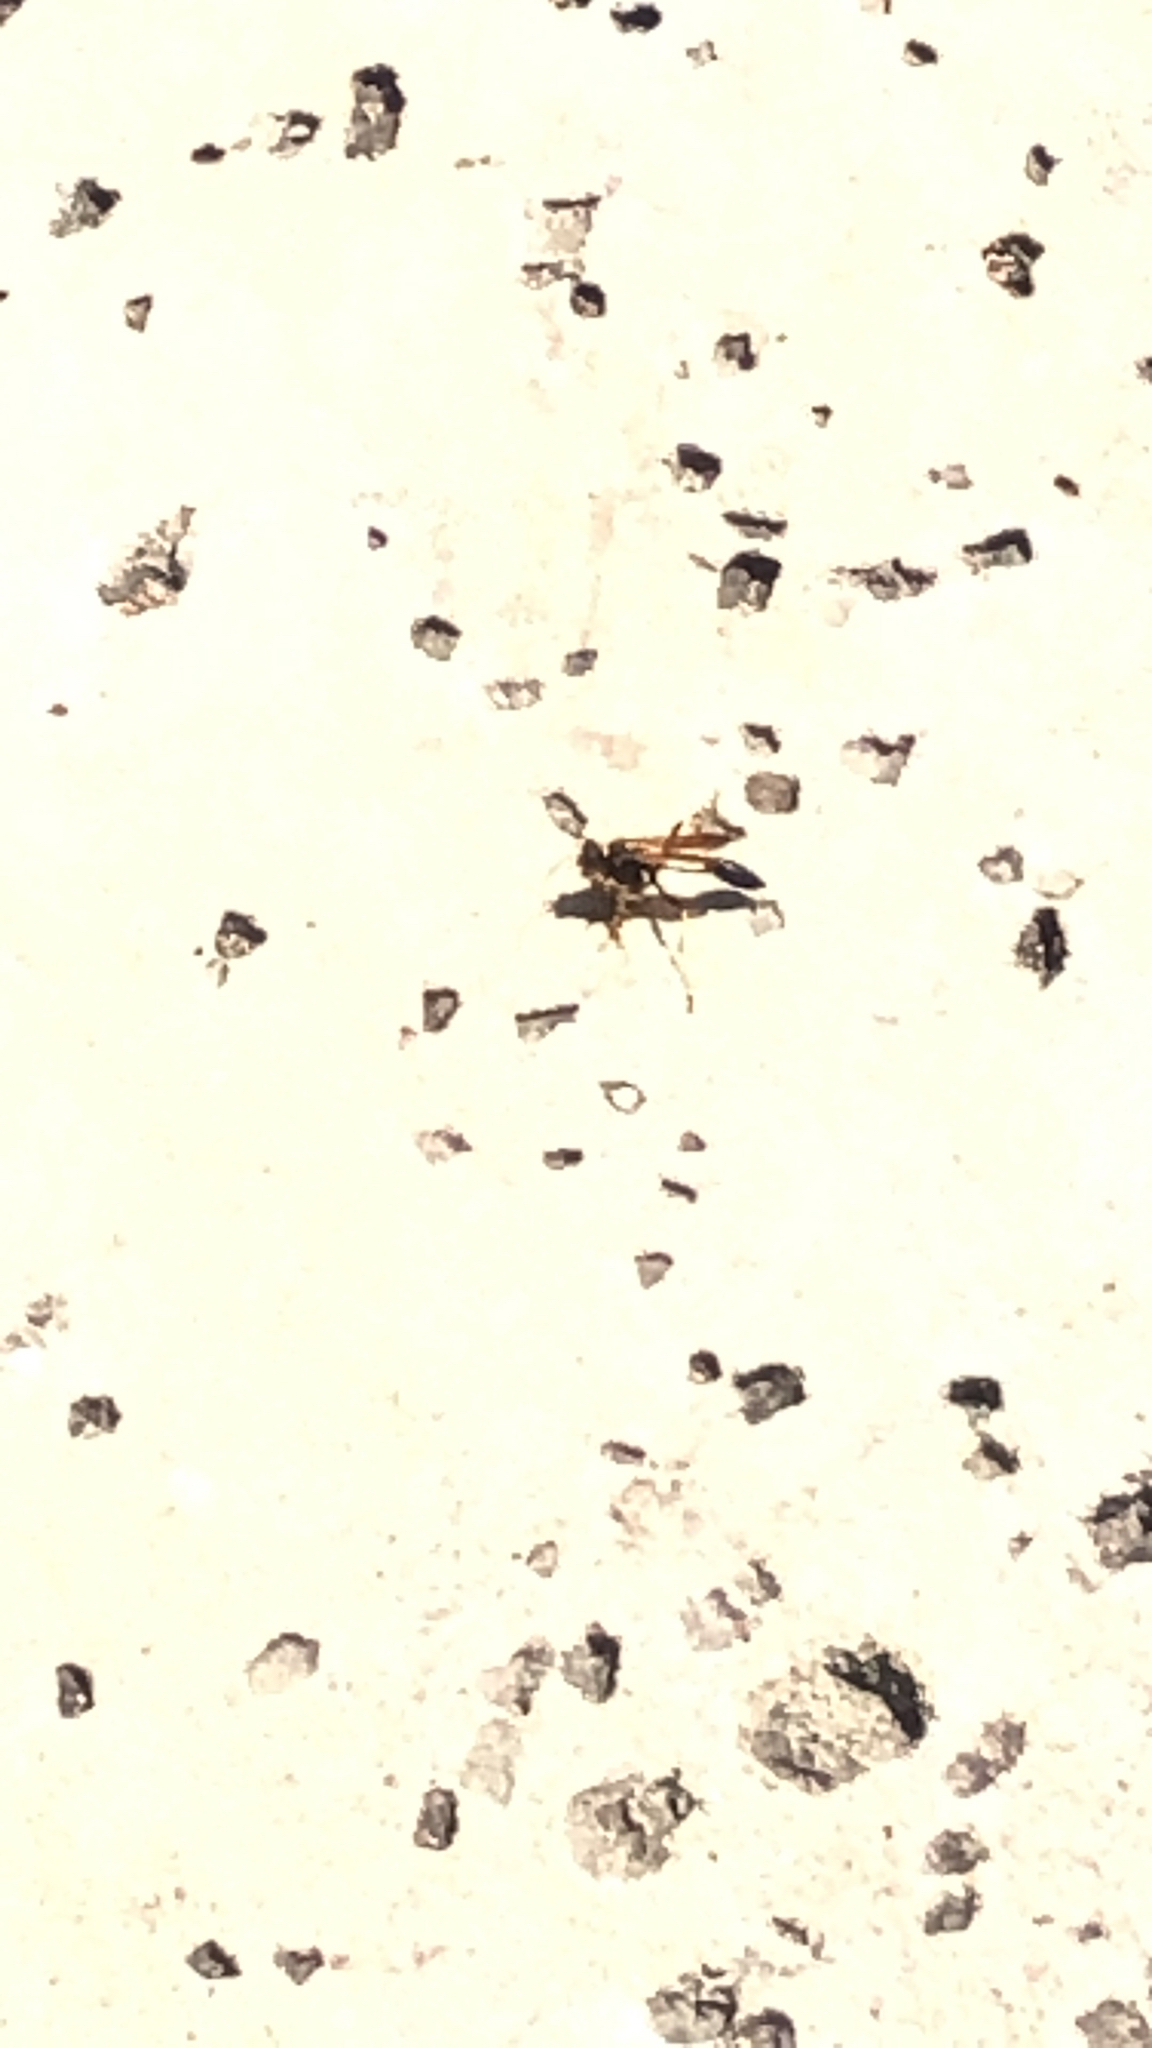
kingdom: Animalia
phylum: Arthropoda
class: Insecta
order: Hymenoptera
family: Sphecidae
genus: Sceliphron
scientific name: Sceliphron caementarium
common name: Mud dauber
